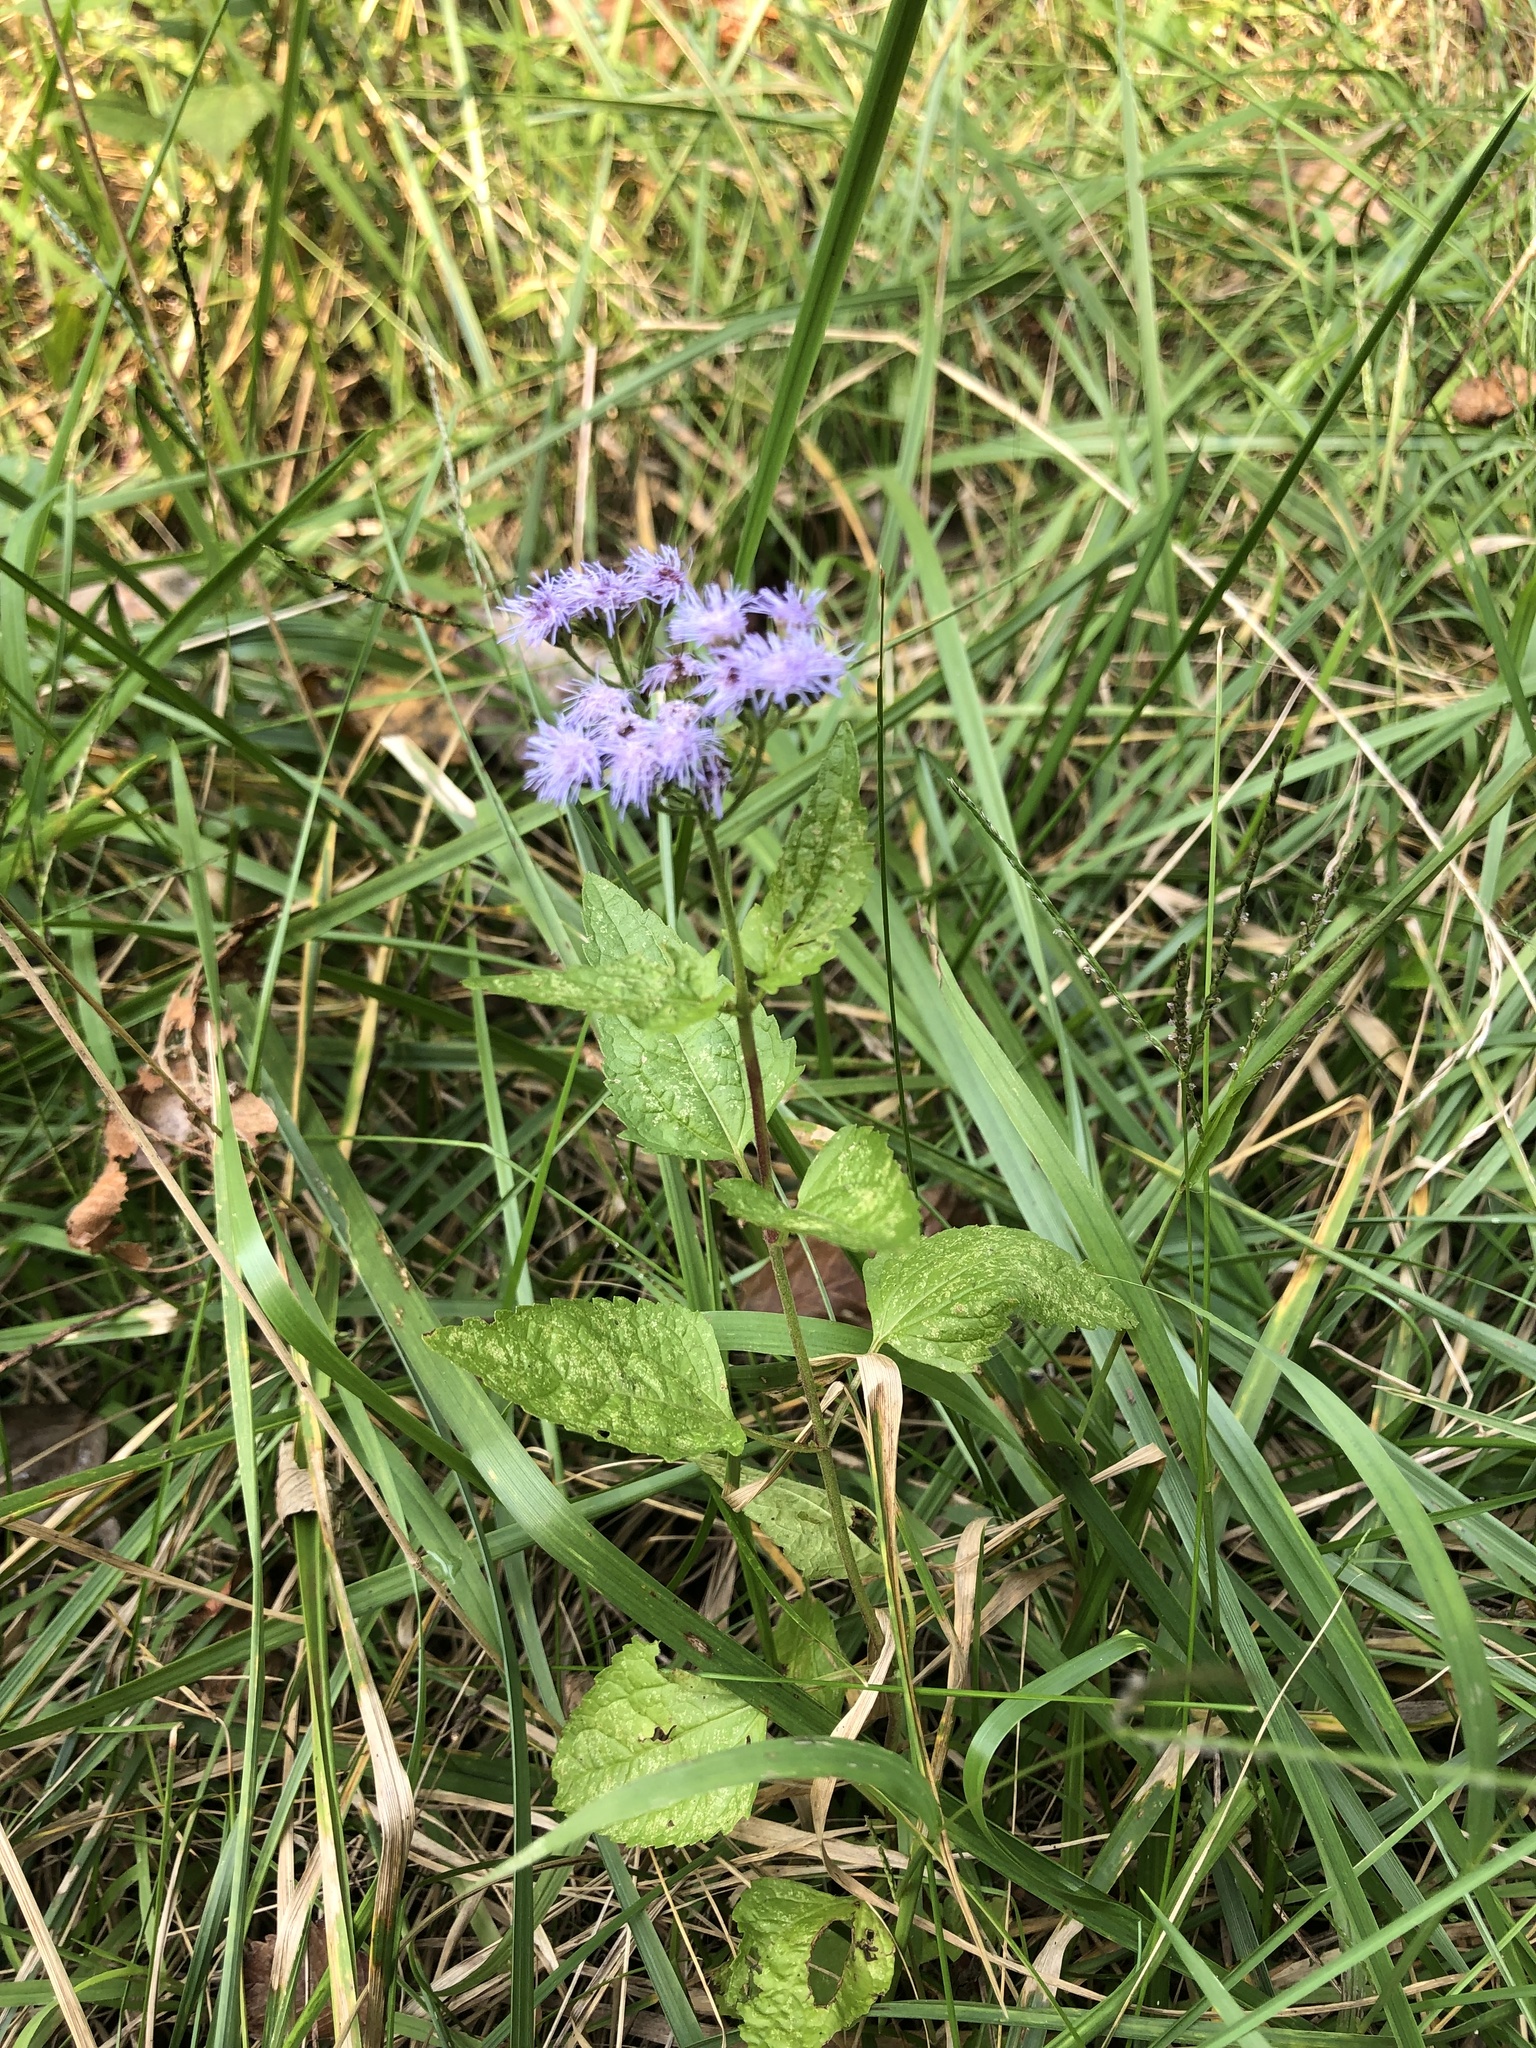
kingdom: Plantae
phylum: Tracheophyta
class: Magnoliopsida
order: Asterales
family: Asteraceae
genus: Conoclinium
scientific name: Conoclinium coelestinum
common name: Blue mistflower
